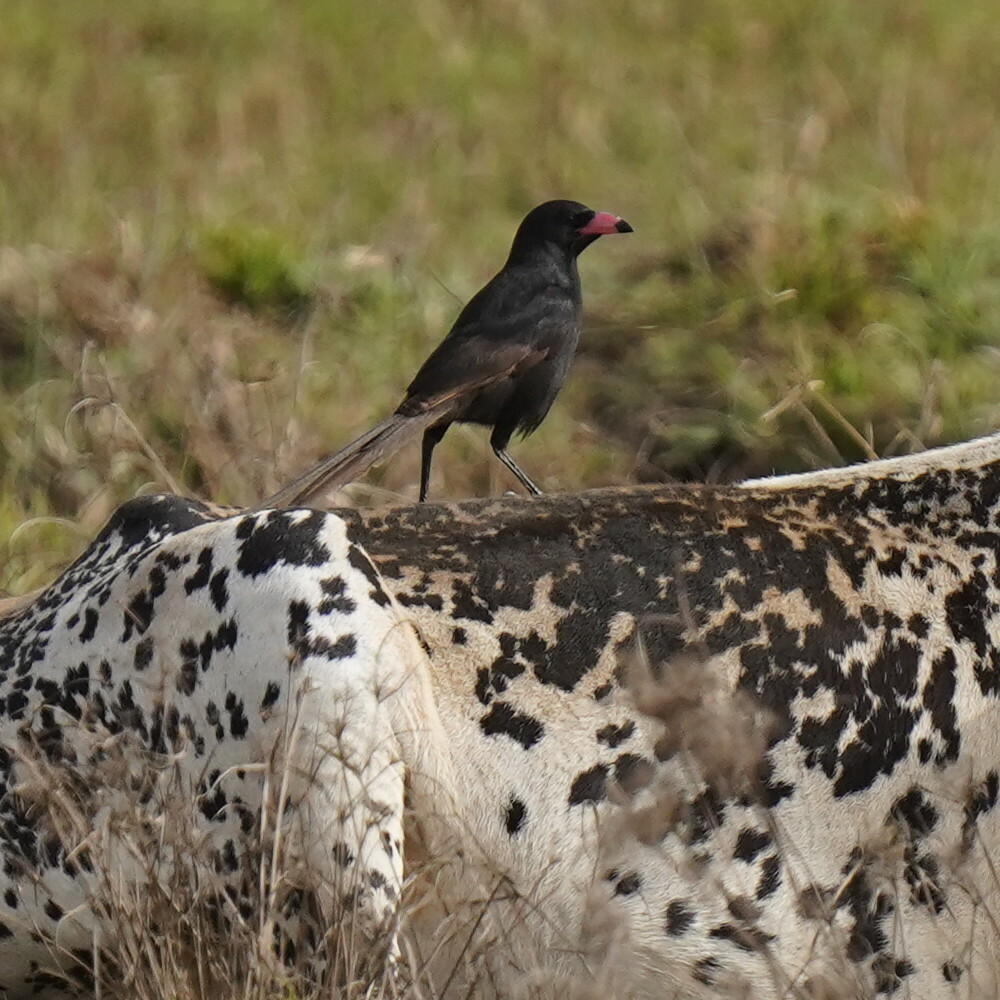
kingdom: Animalia
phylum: Chordata
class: Aves
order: Passeriformes
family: Corvidae
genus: Ptilostomus
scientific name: Ptilostomus afer
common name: Piapiac
